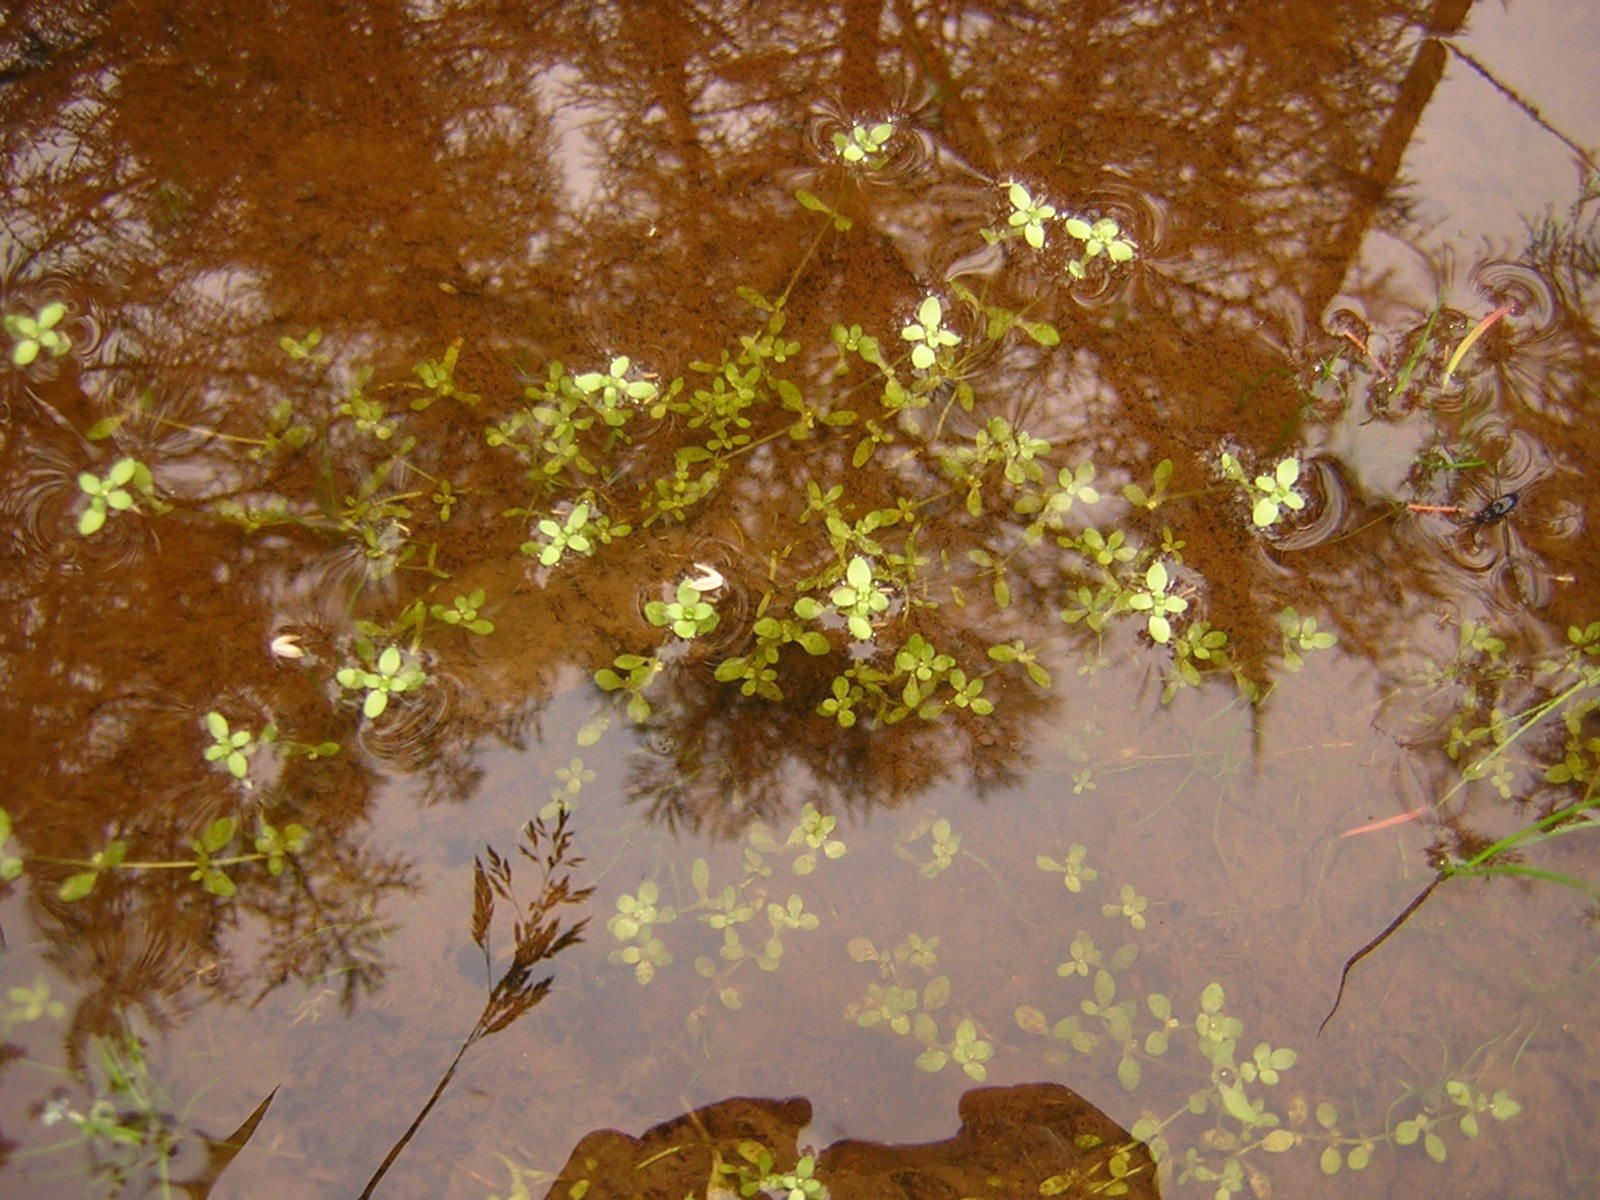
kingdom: Plantae
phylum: Tracheophyta
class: Magnoliopsida
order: Lamiales
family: Plantaginaceae
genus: Callitriche
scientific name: Callitriche
